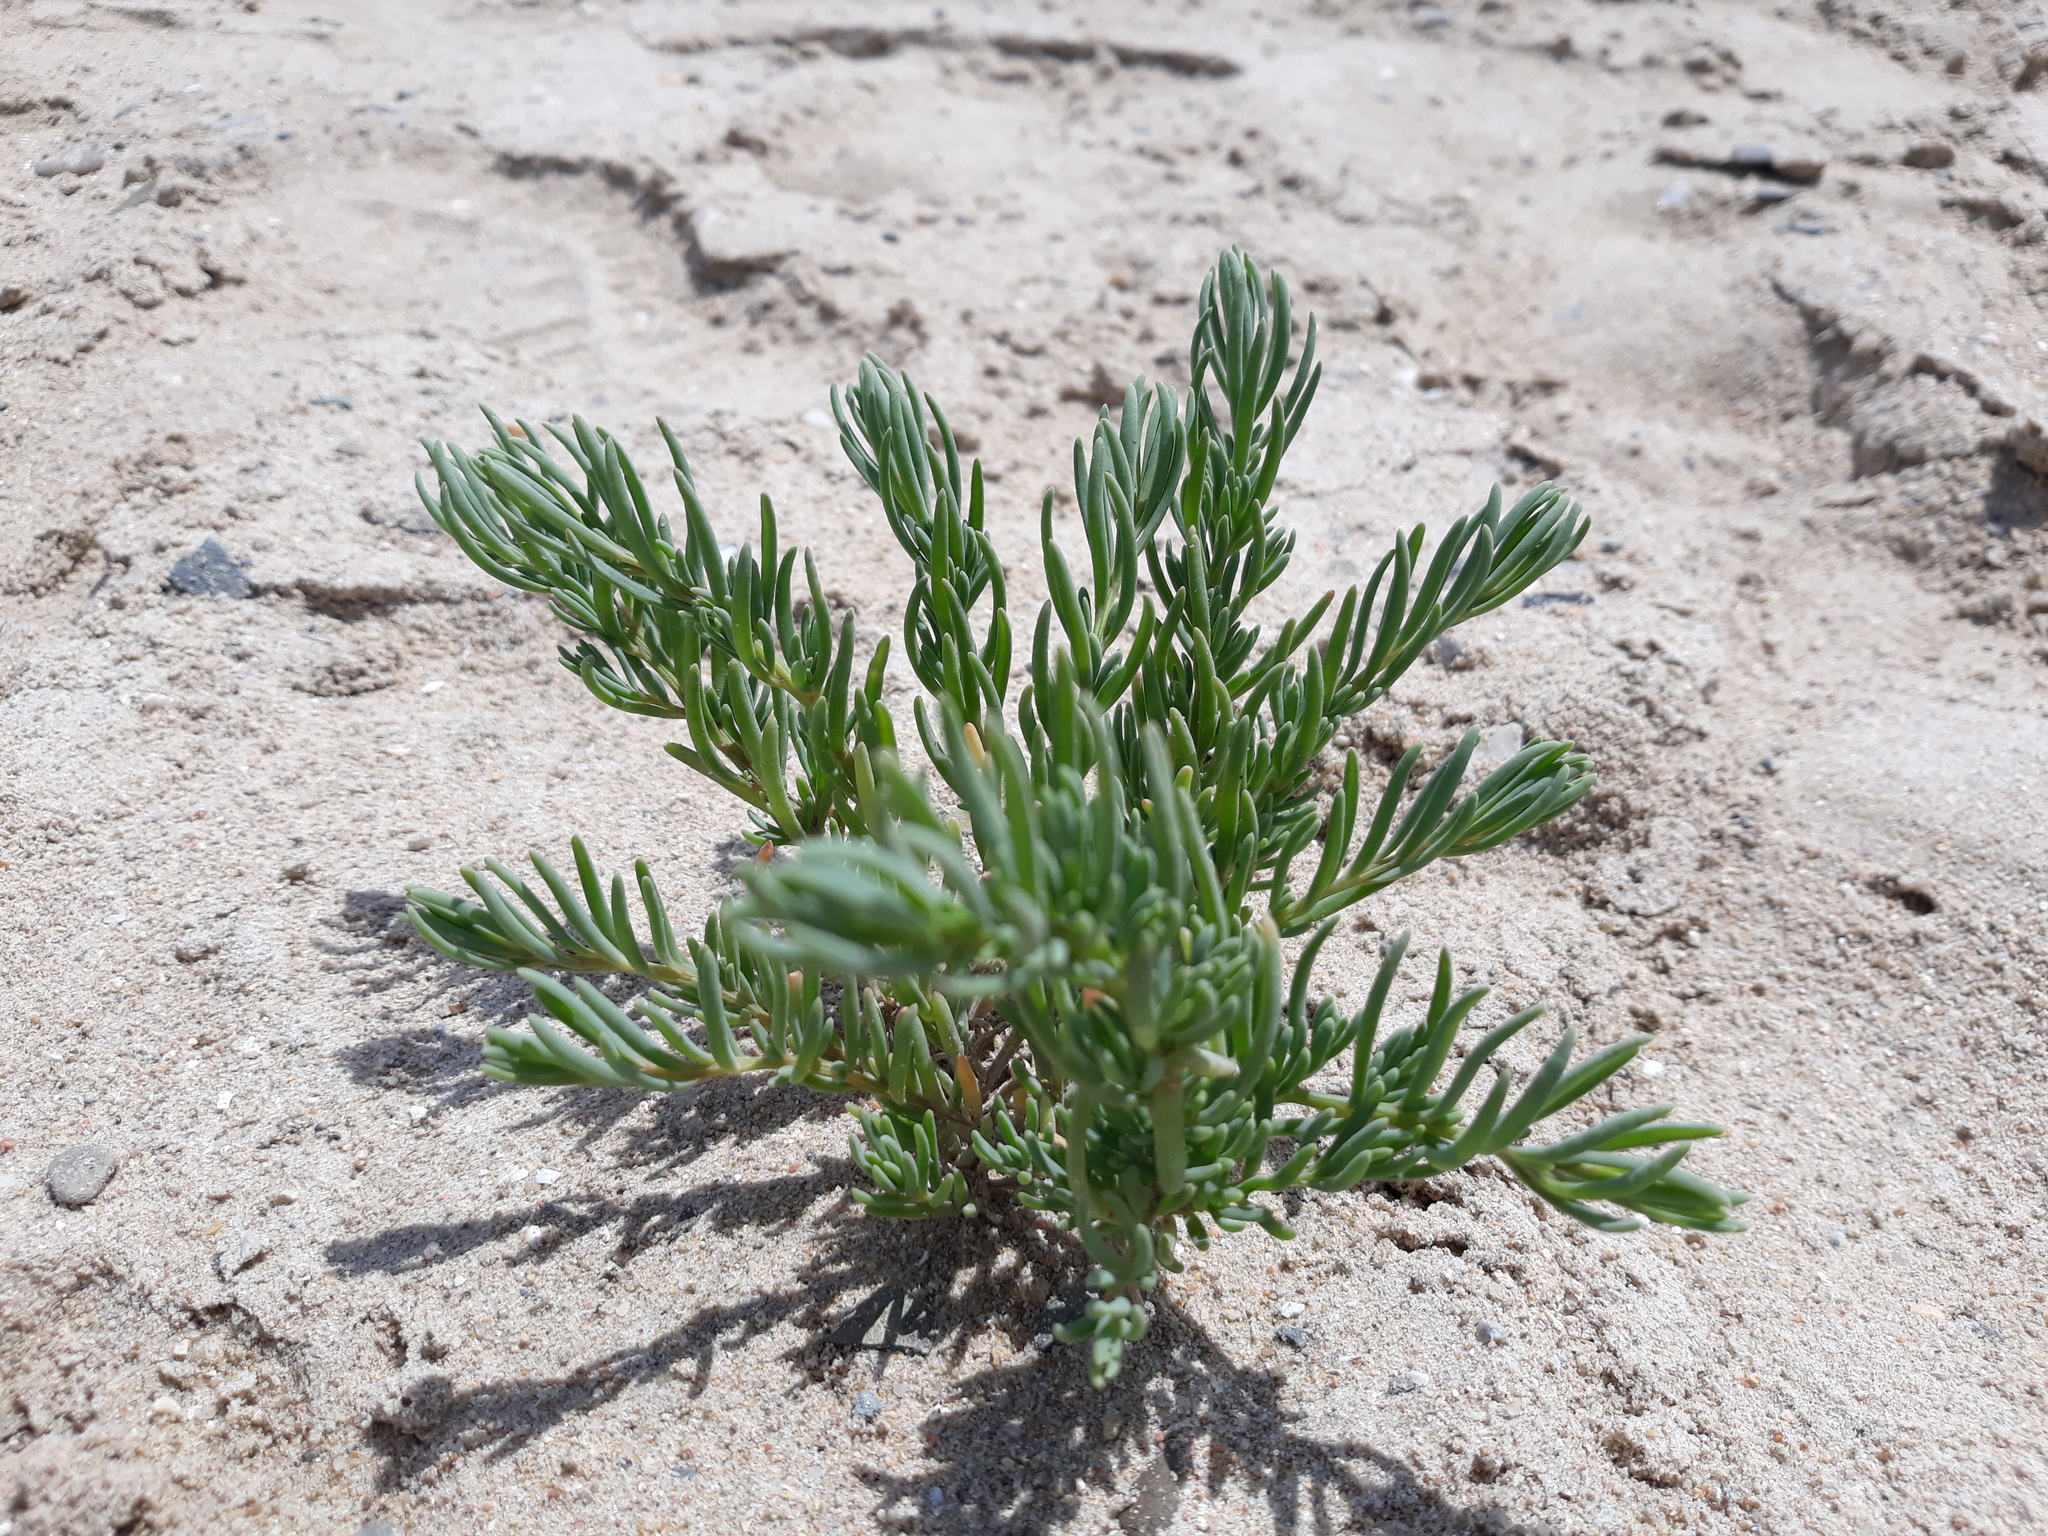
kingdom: Plantae
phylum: Tracheophyta
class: Magnoliopsida
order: Caryophyllales
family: Amaranthaceae
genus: Suaeda
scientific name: Suaeda maritima
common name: Annual sea-blite
